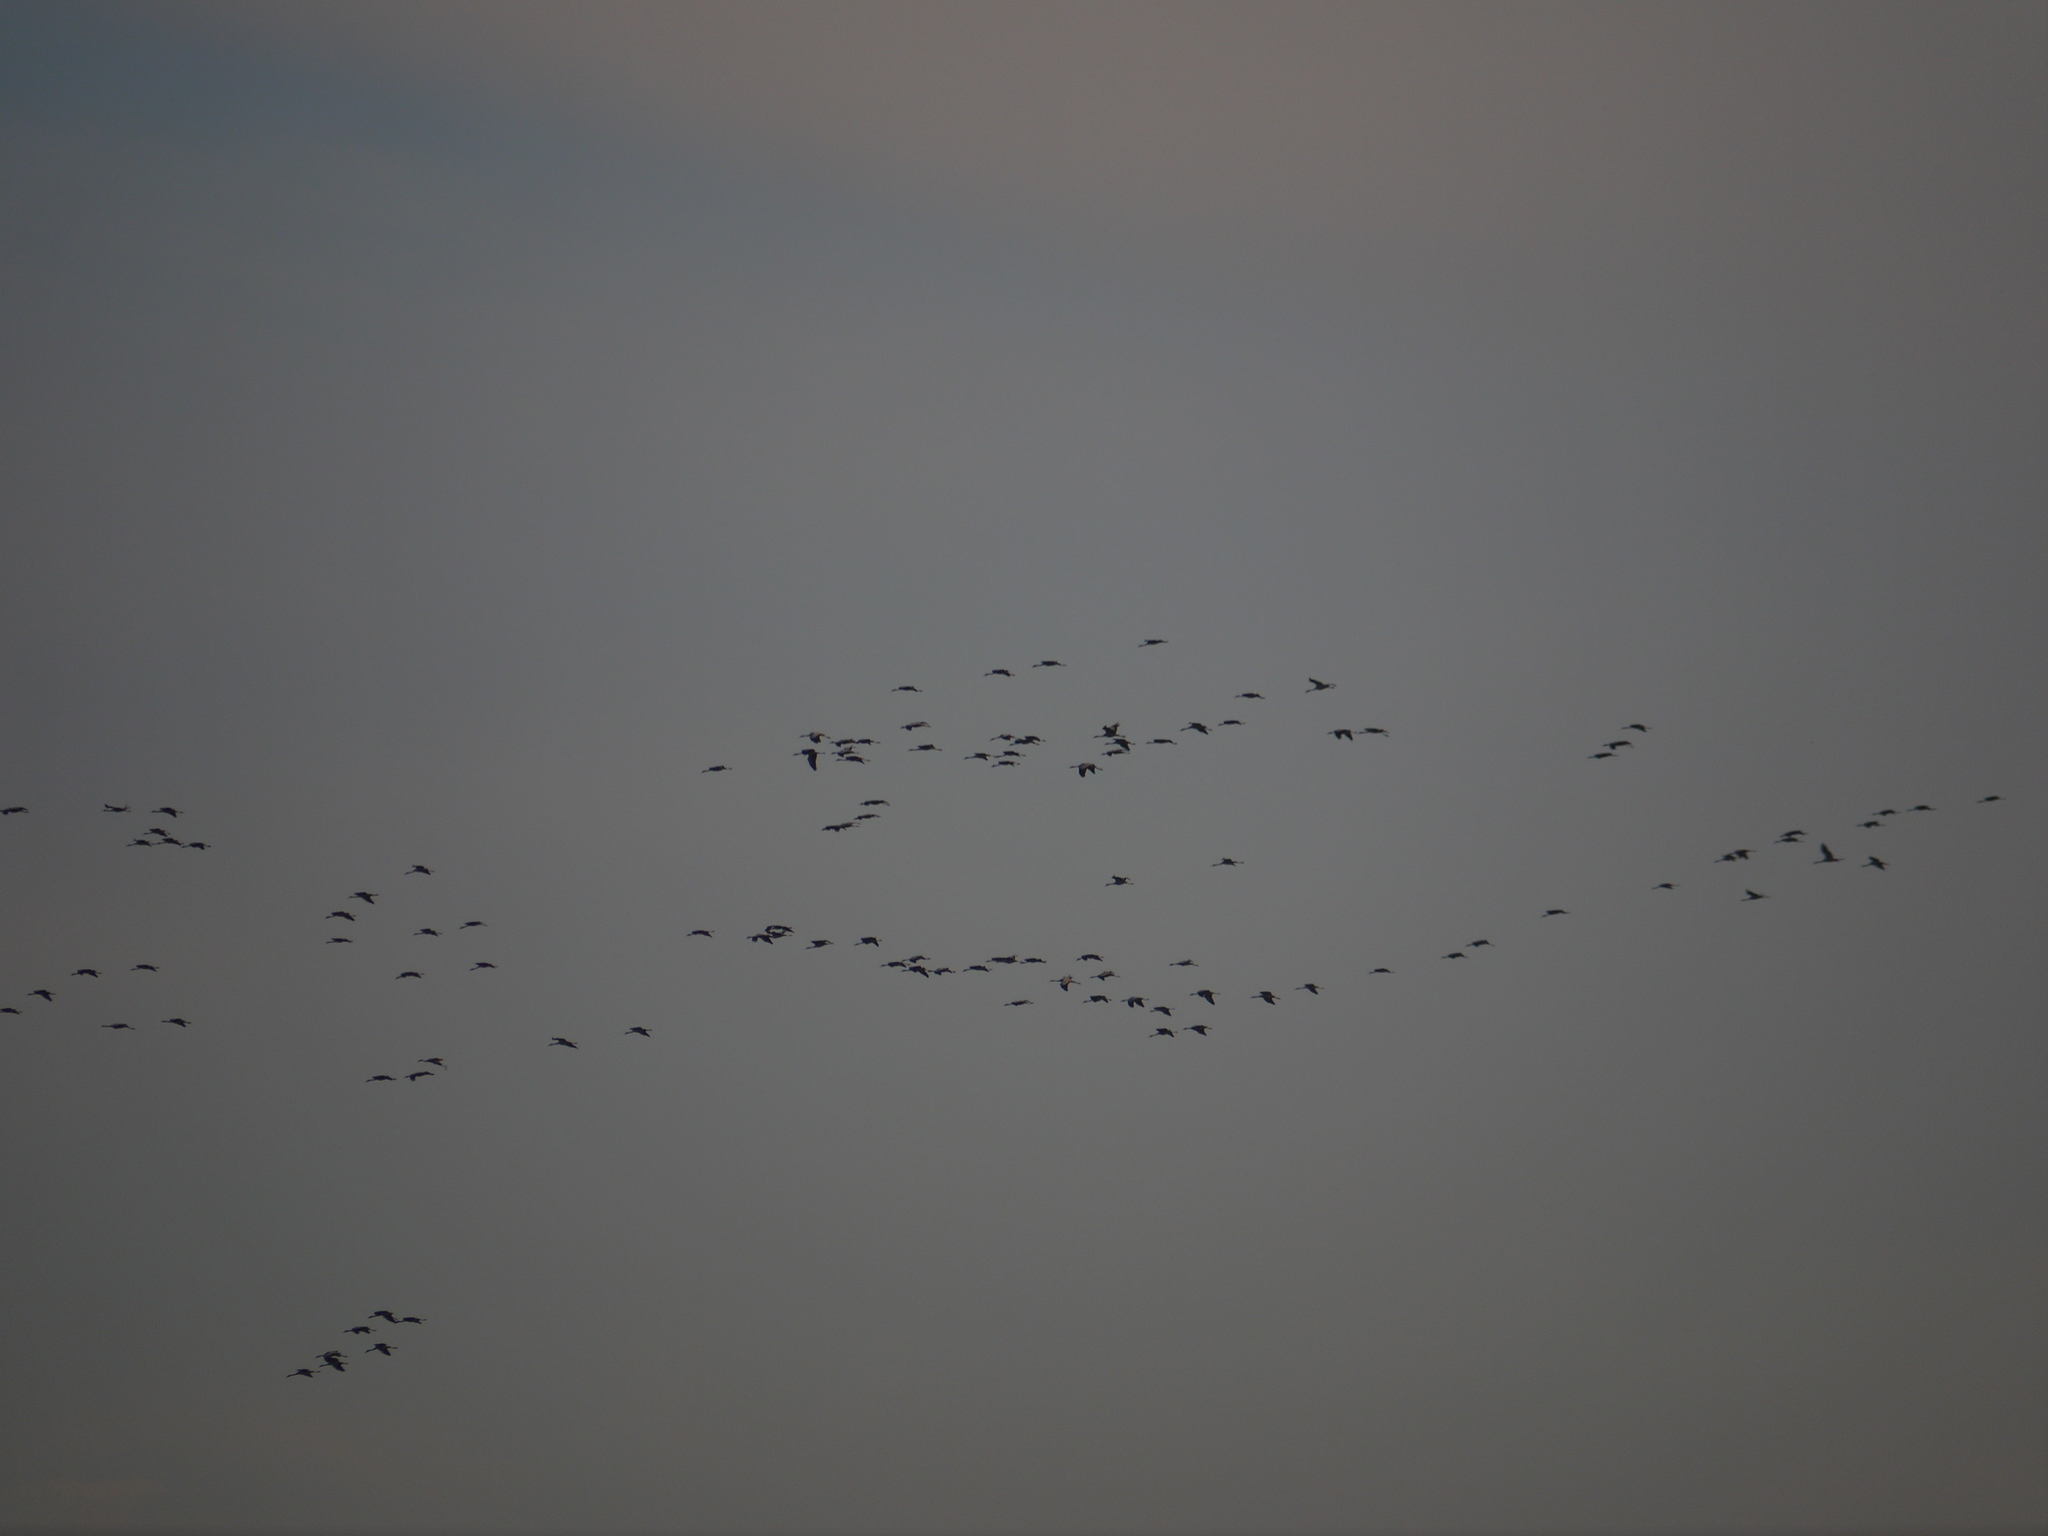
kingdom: Animalia
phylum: Chordata
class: Aves
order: Gruiformes
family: Gruidae
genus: Grus
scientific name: Grus grus
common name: Common crane
